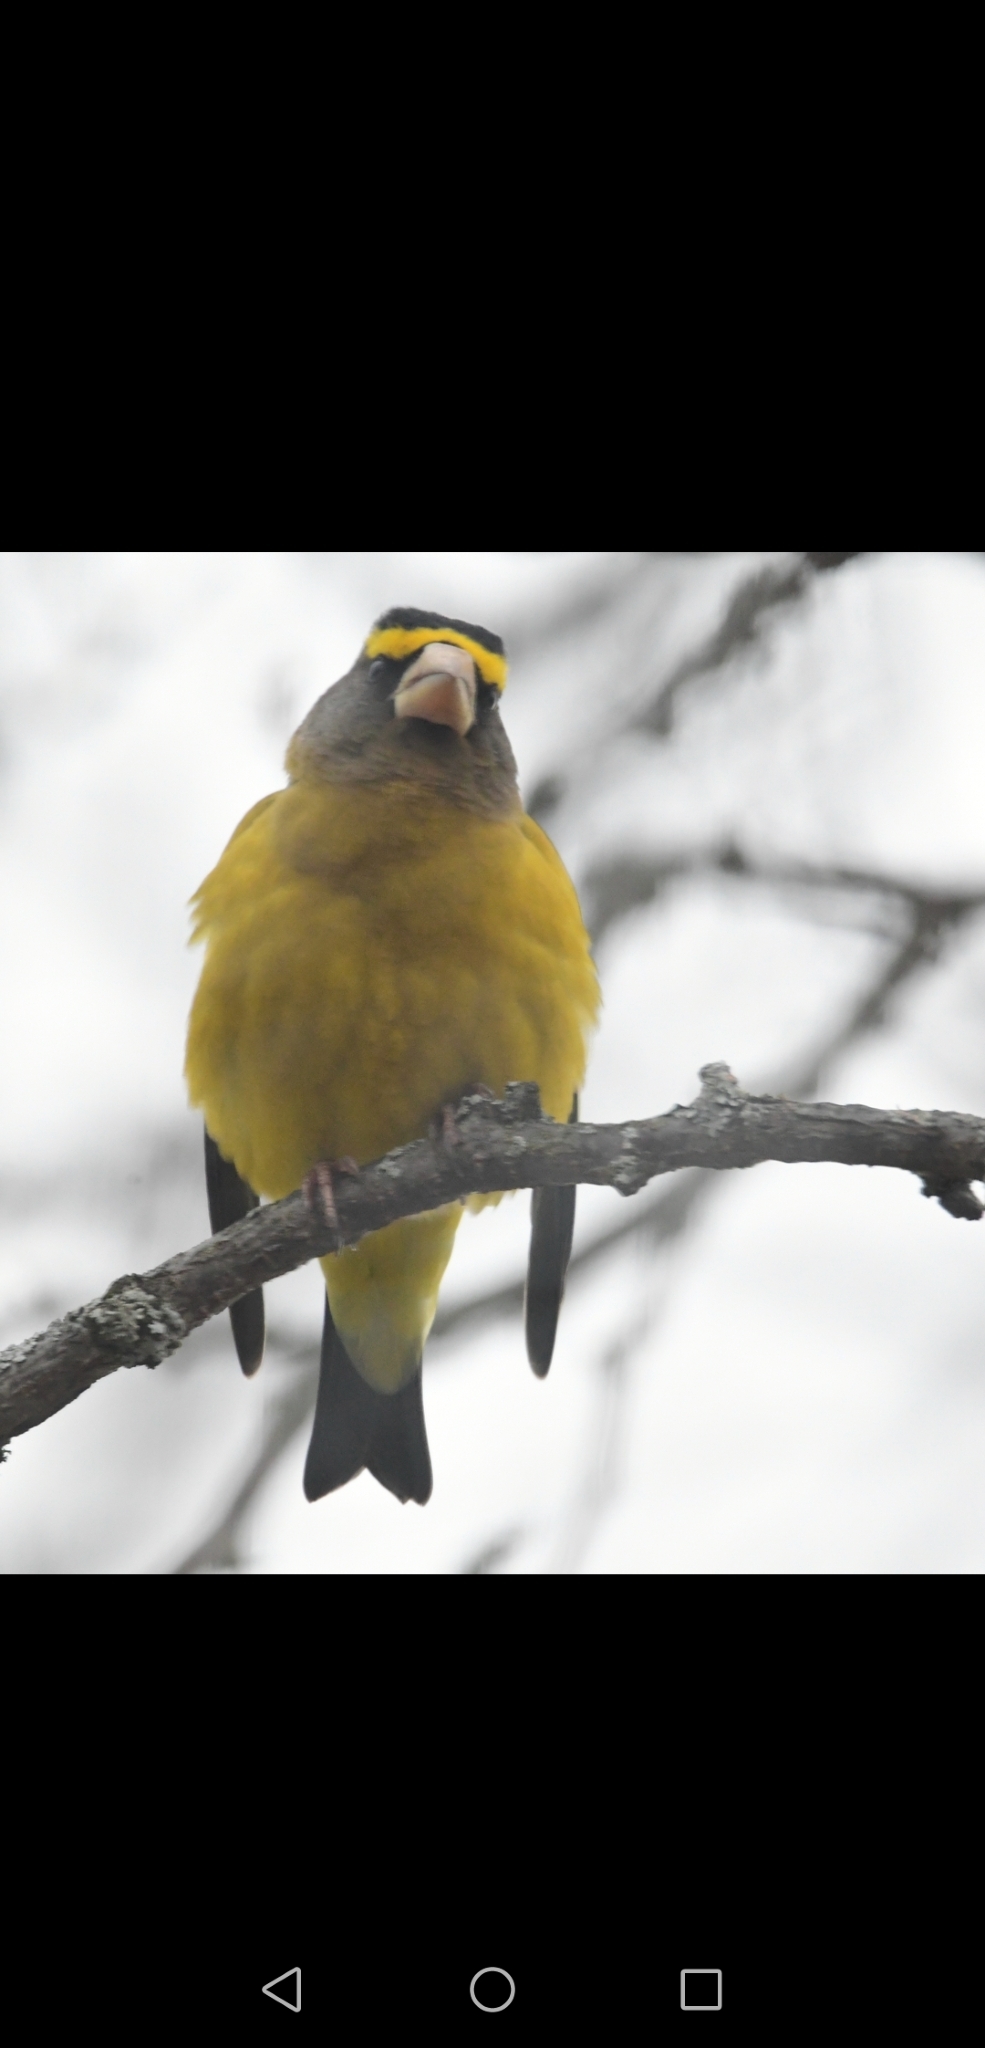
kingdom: Animalia
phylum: Chordata
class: Aves
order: Passeriformes
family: Fringillidae
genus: Hesperiphona
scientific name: Hesperiphona vespertina
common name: Evening grosbeak
